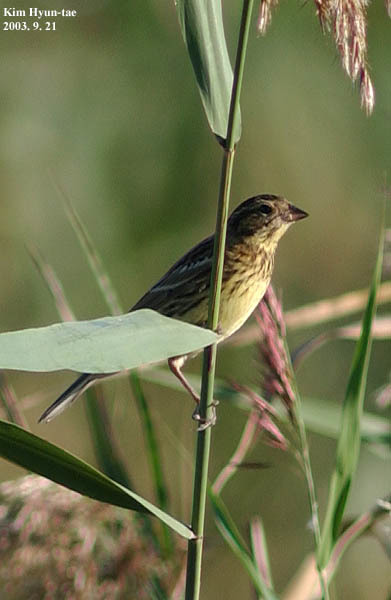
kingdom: Animalia
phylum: Chordata
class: Aves
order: Passeriformes
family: Emberizidae
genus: Emberiza
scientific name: Emberiza aureola
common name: Yellow-breasted bunting
